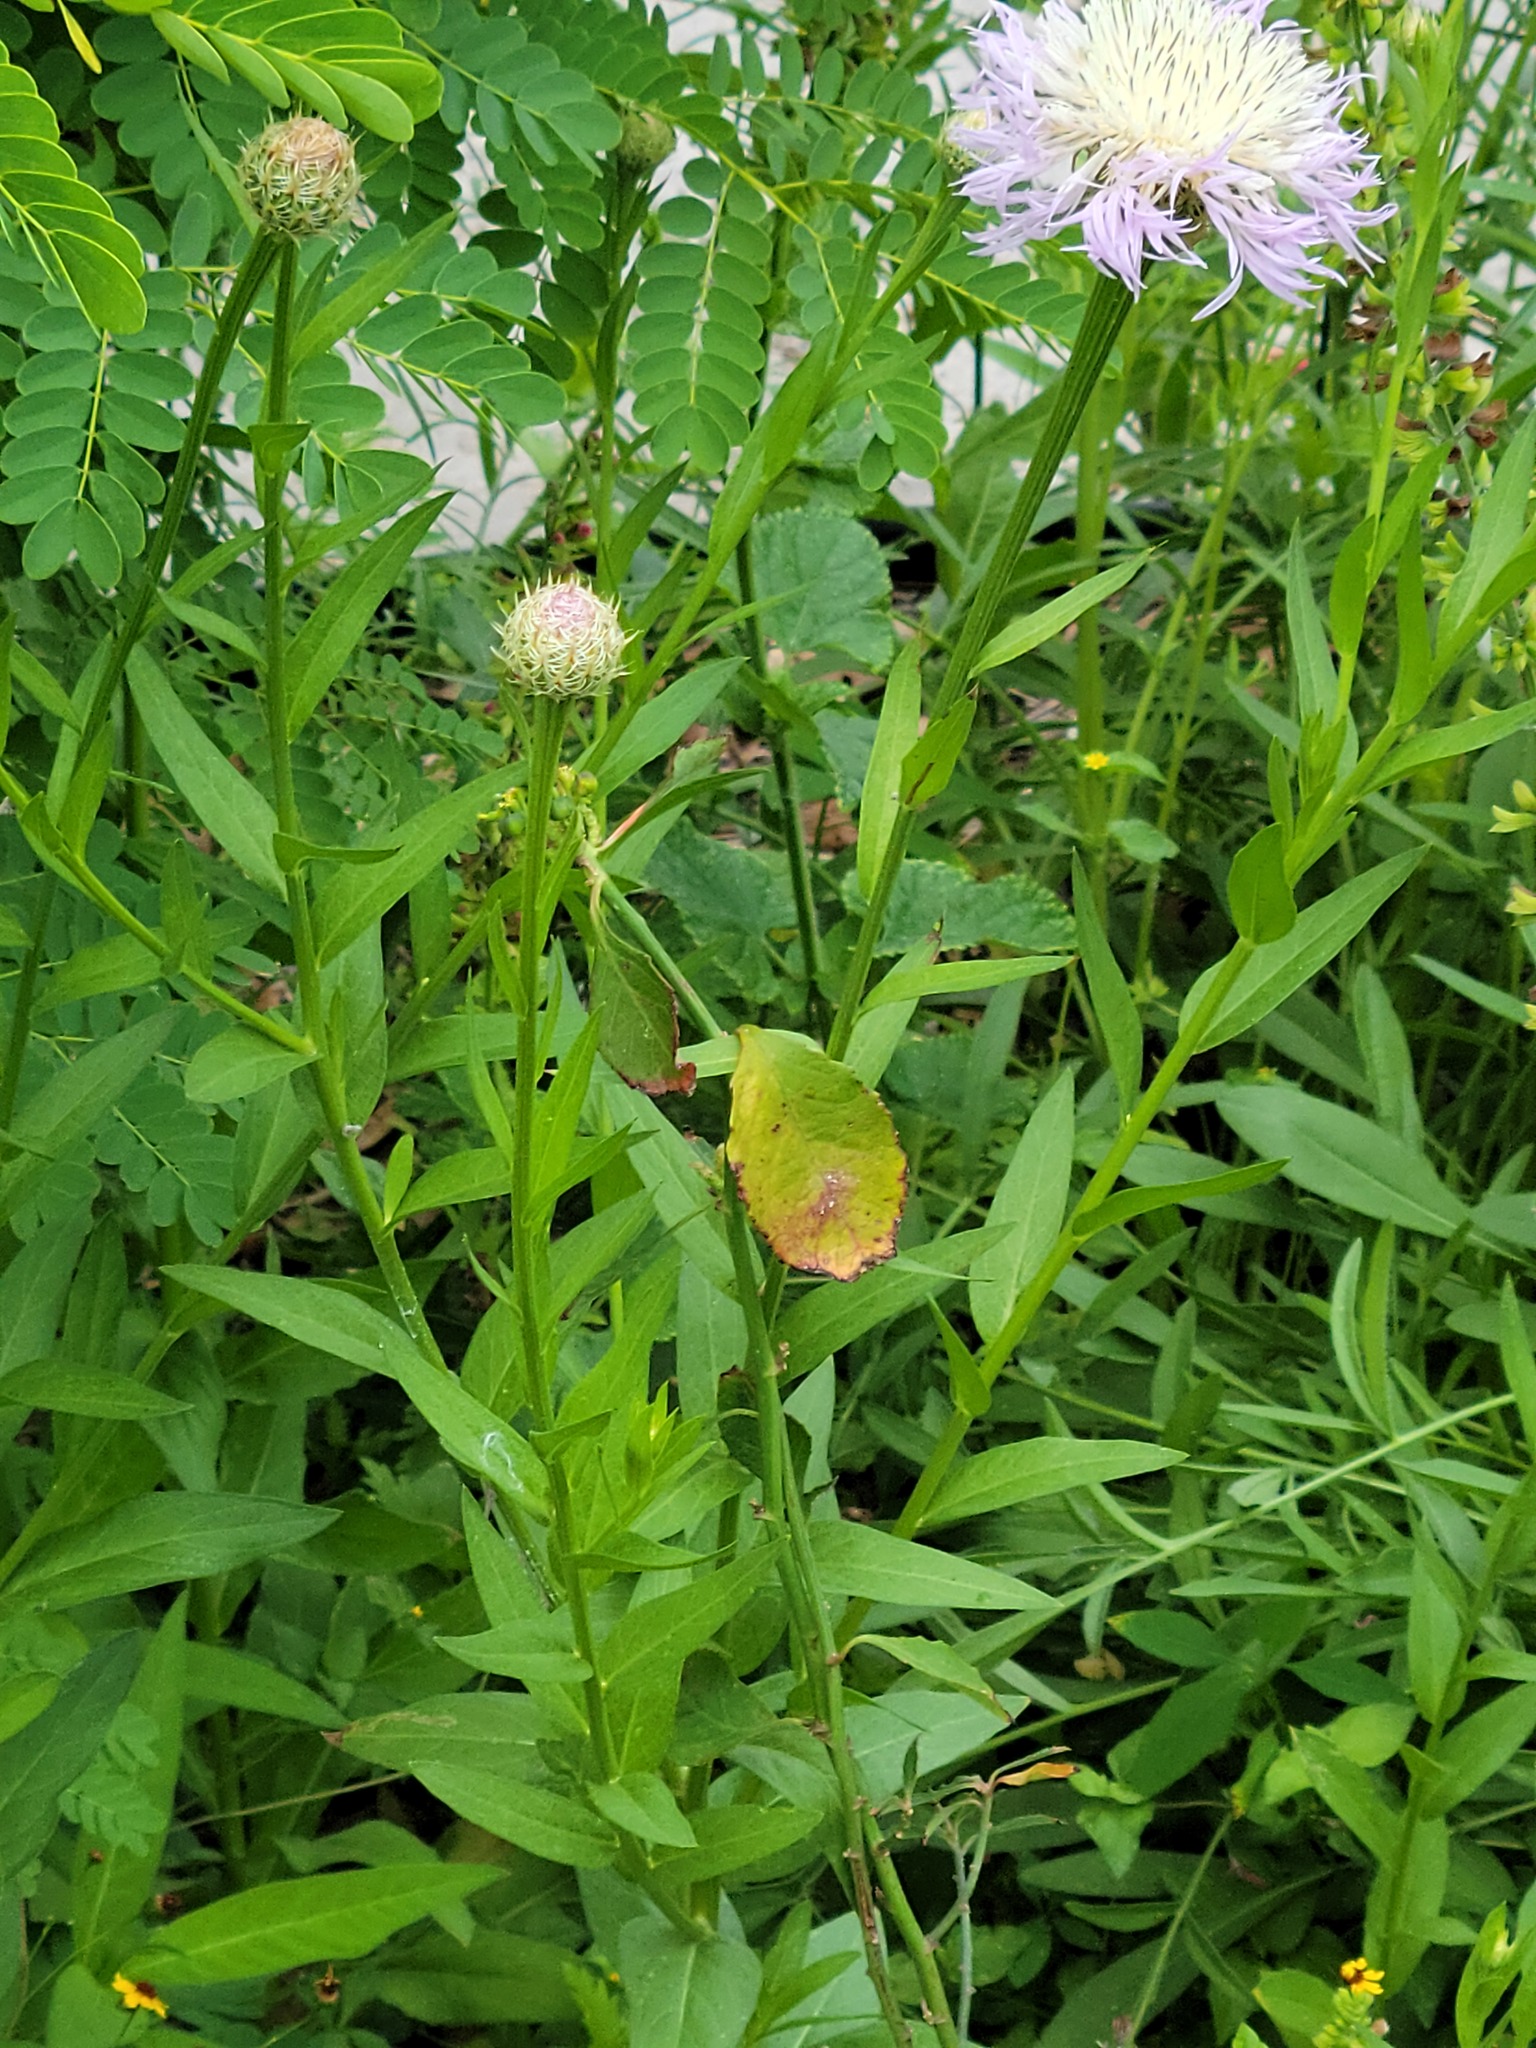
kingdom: Plantae
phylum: Tracheophyta
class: Magnoliopsida
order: Asterales
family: Asteraceae
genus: Plectocephalus
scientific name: Plectocephalus americanus
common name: American basket-flower
